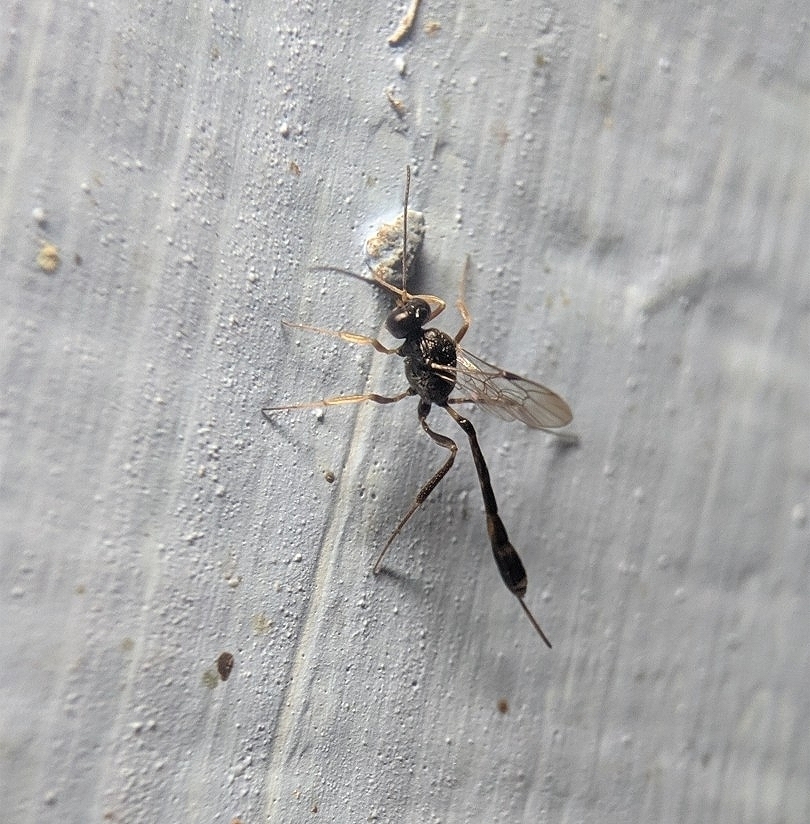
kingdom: Animalia
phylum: Arthropoda
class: Insecta
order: Hymenoptera
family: Ichneumonidae
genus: Anomalon
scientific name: Anomalon
